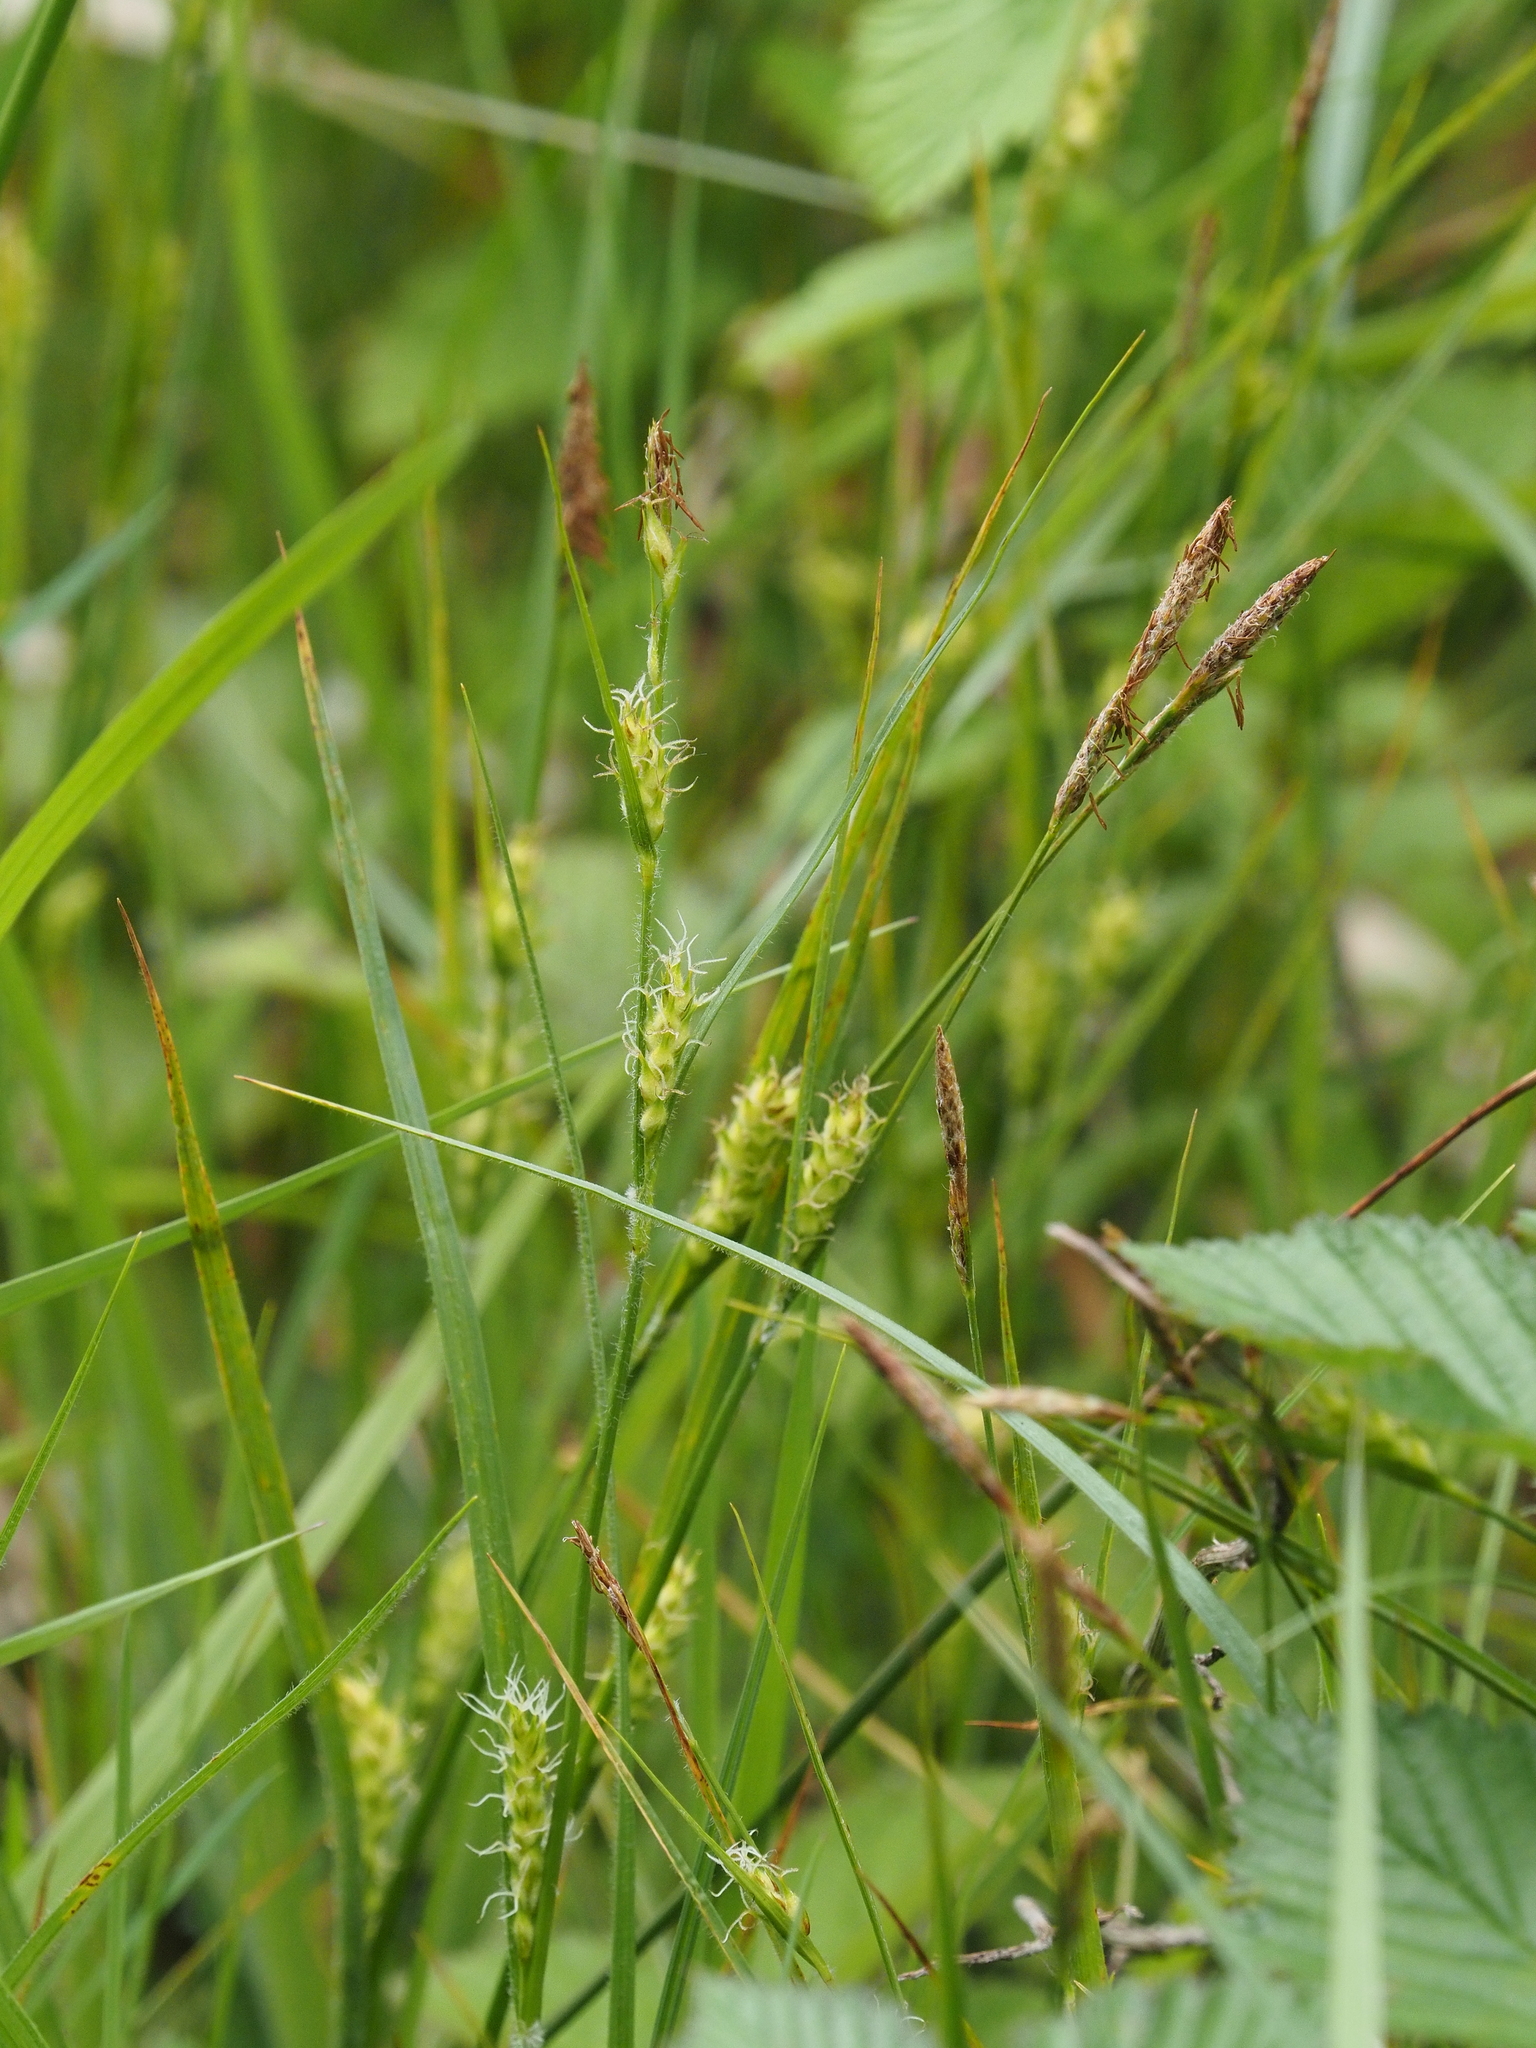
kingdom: Plantae
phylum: Tracheophyta
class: Liliopsida
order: Poales
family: Cyperaceae
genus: Carex
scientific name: Carex hirta
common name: Hairy sedge
